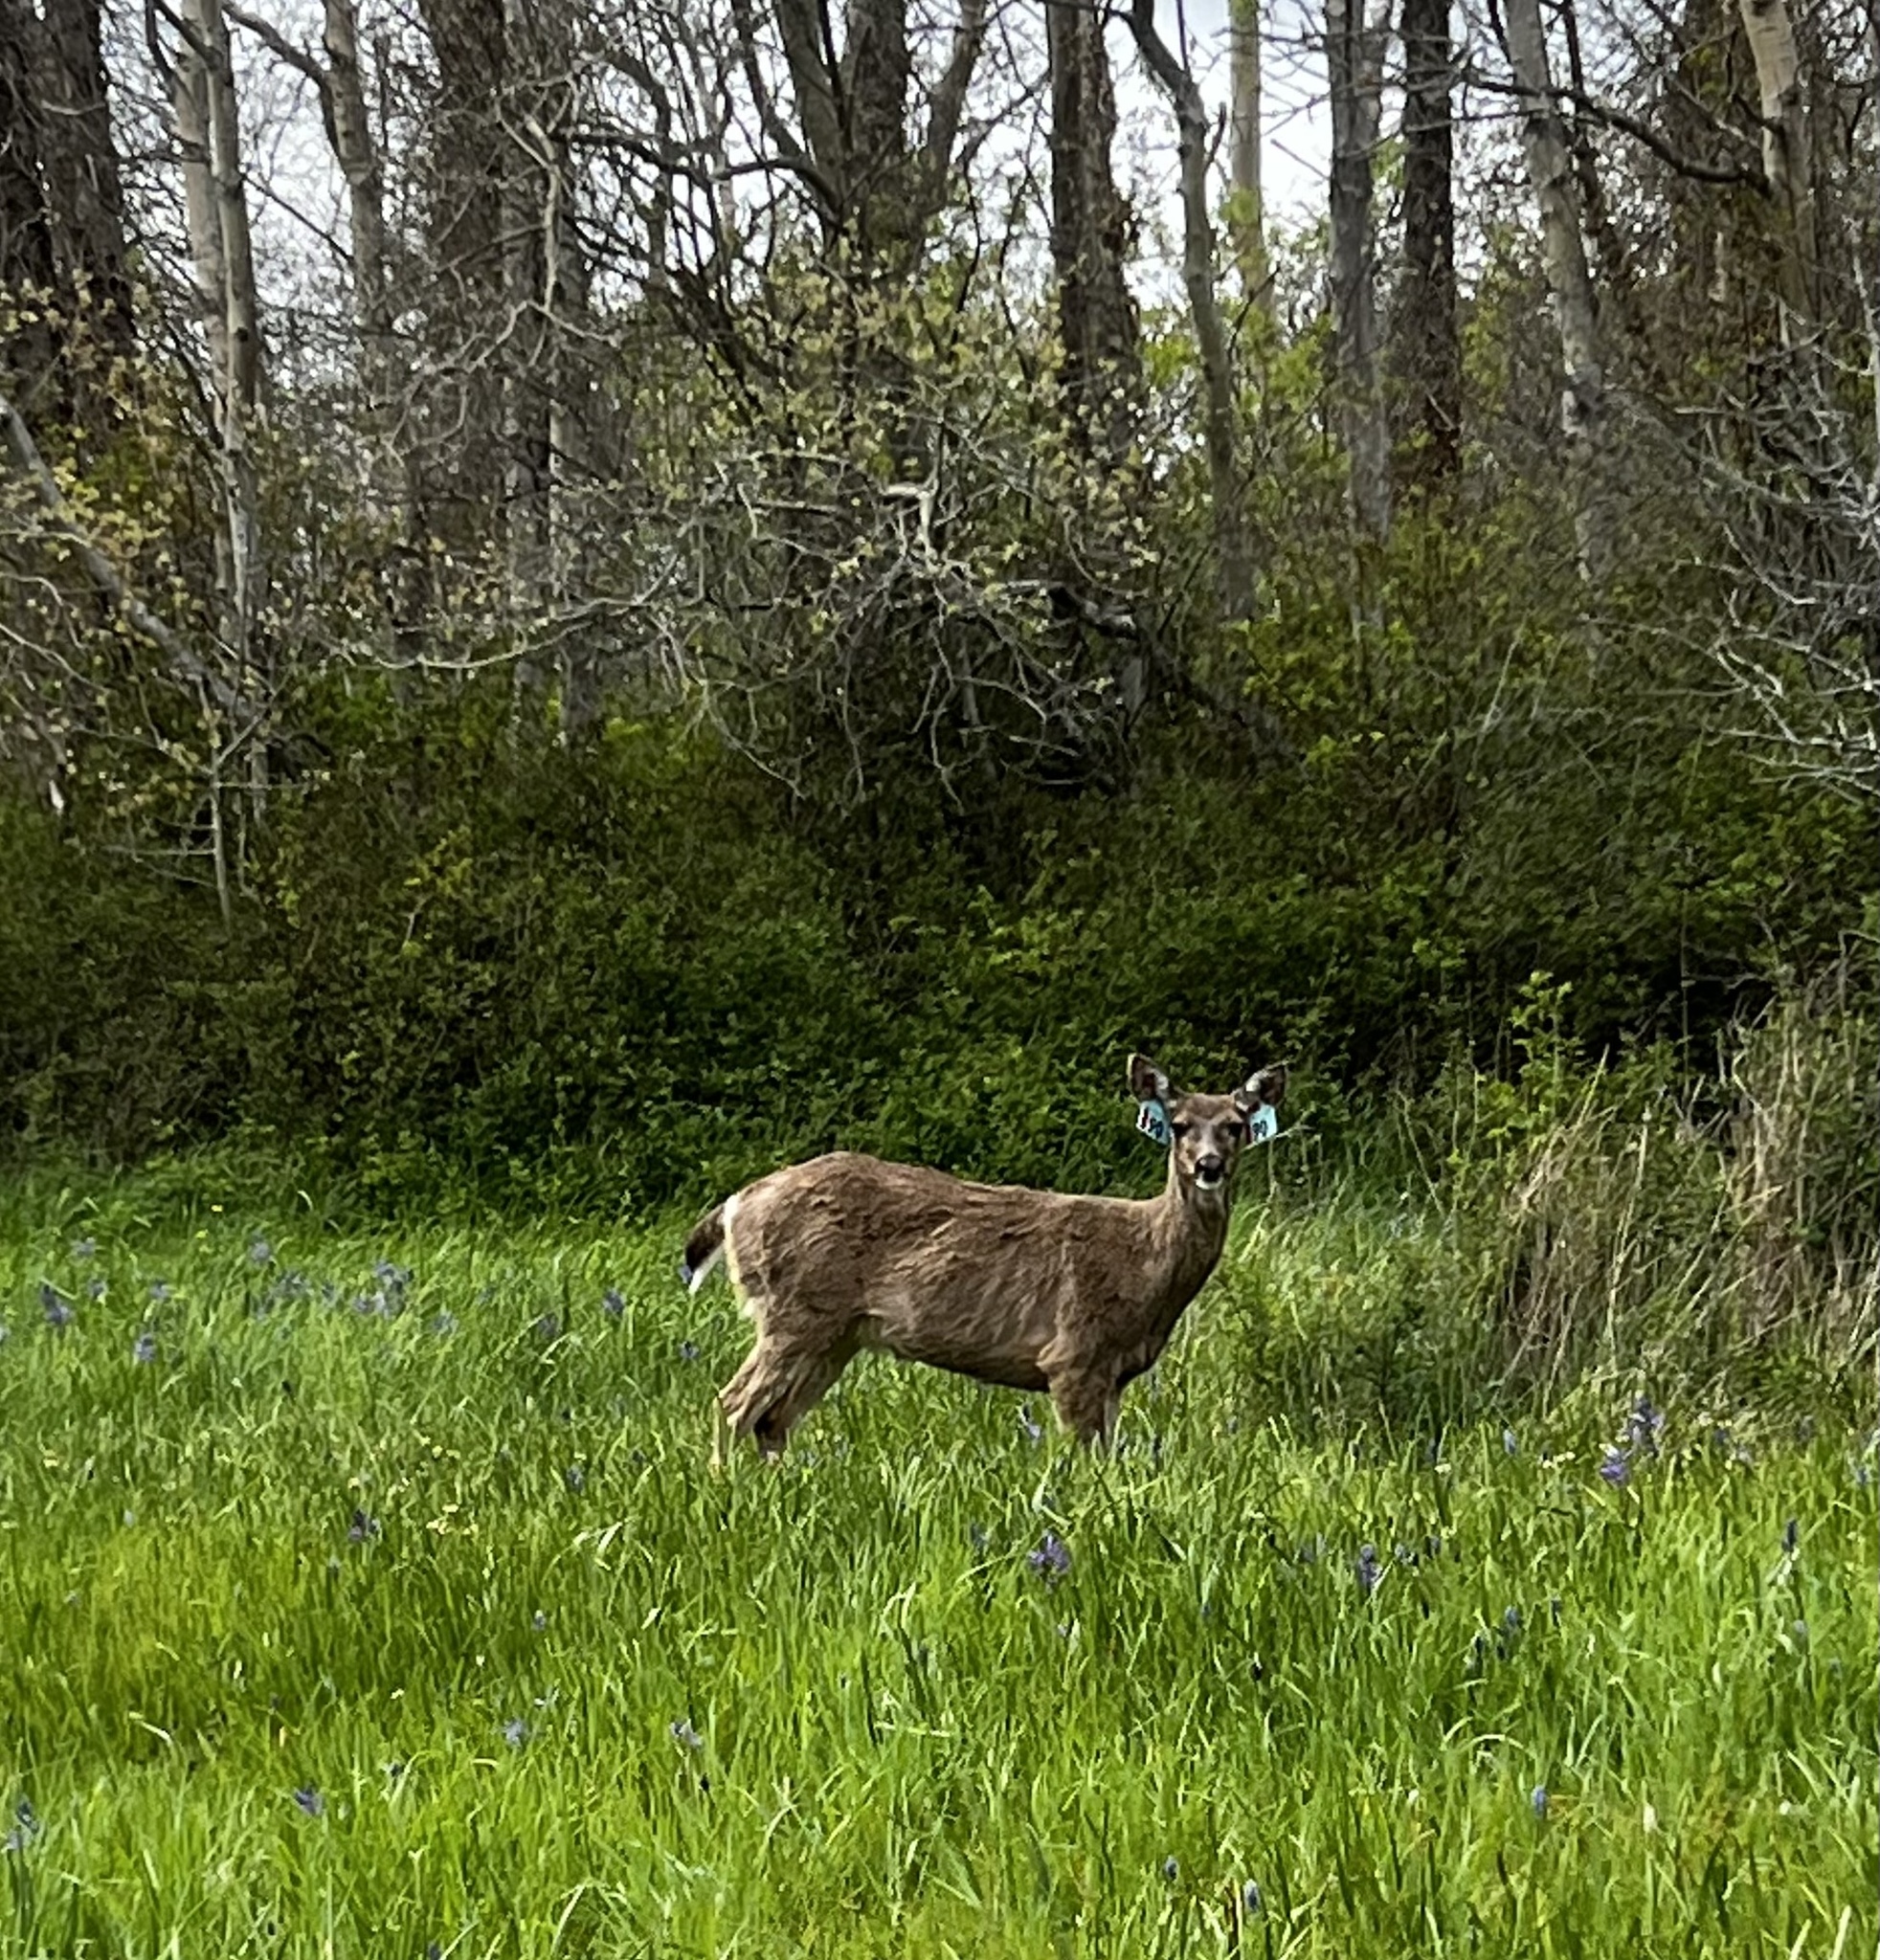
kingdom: Animalia
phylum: Chordata
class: Mammalia
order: Artiodactyla
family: Cervidae
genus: Odocoileus
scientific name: Odocoileus hemionus
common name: Mule deer
